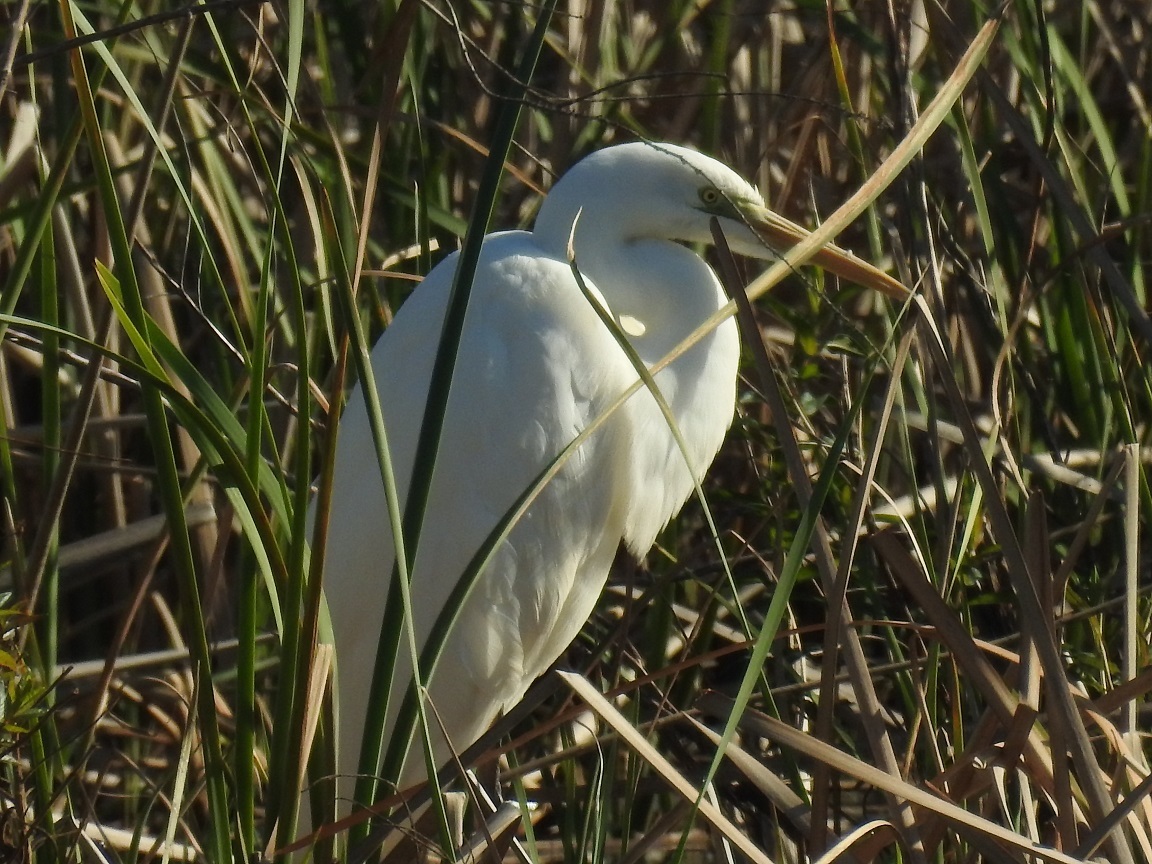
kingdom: Animalia
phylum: Chordata
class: Aves
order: Pelecaniformes
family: Ardeidae
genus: Ardea
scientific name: Ardea alba
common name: Great egret
